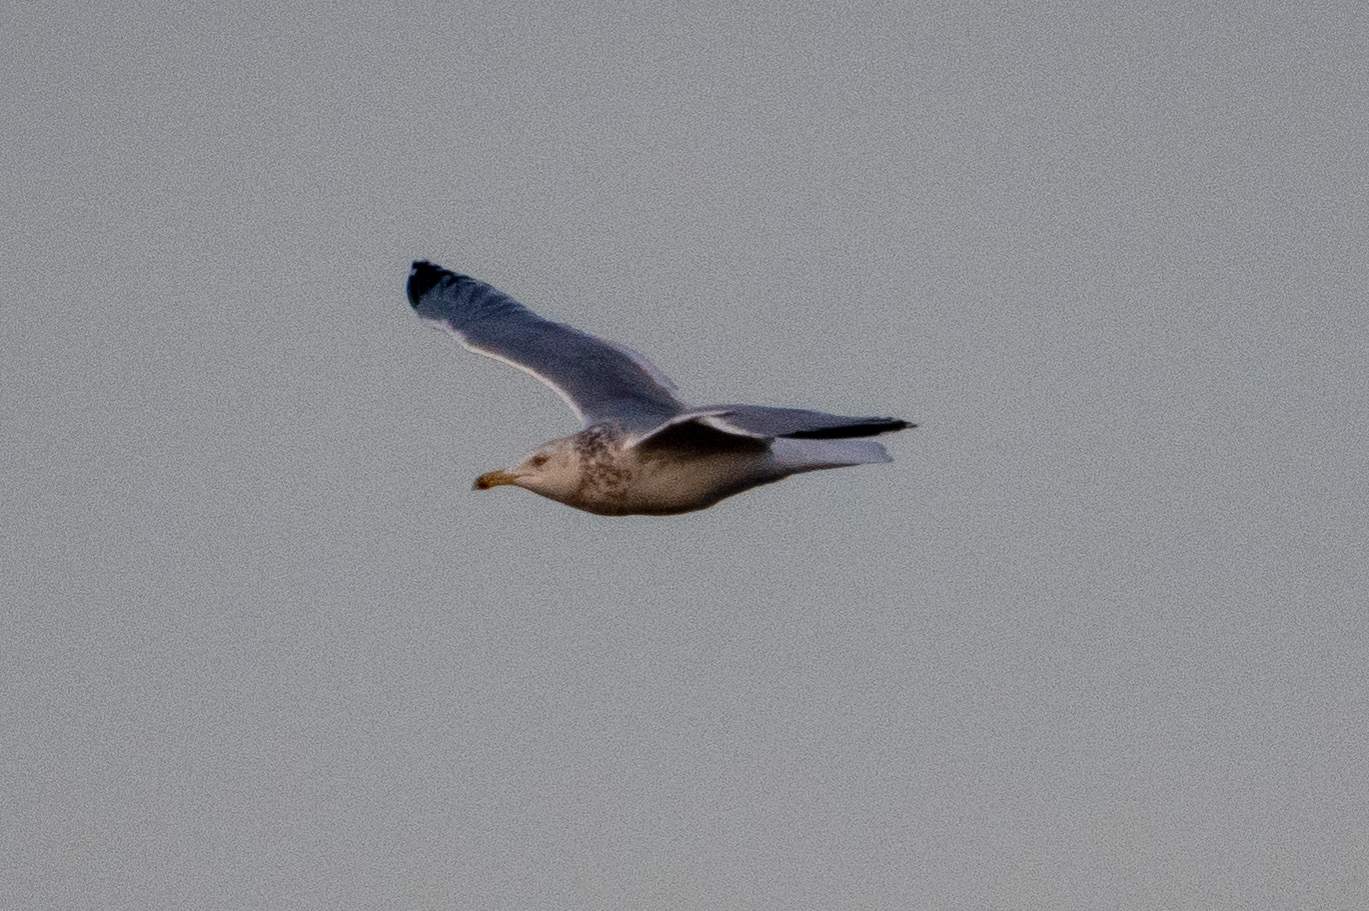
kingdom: Animalia
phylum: Chordata
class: Aves
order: Charadriiformes
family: Laridae
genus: Larus
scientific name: Larus argentatus
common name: Herring gull
